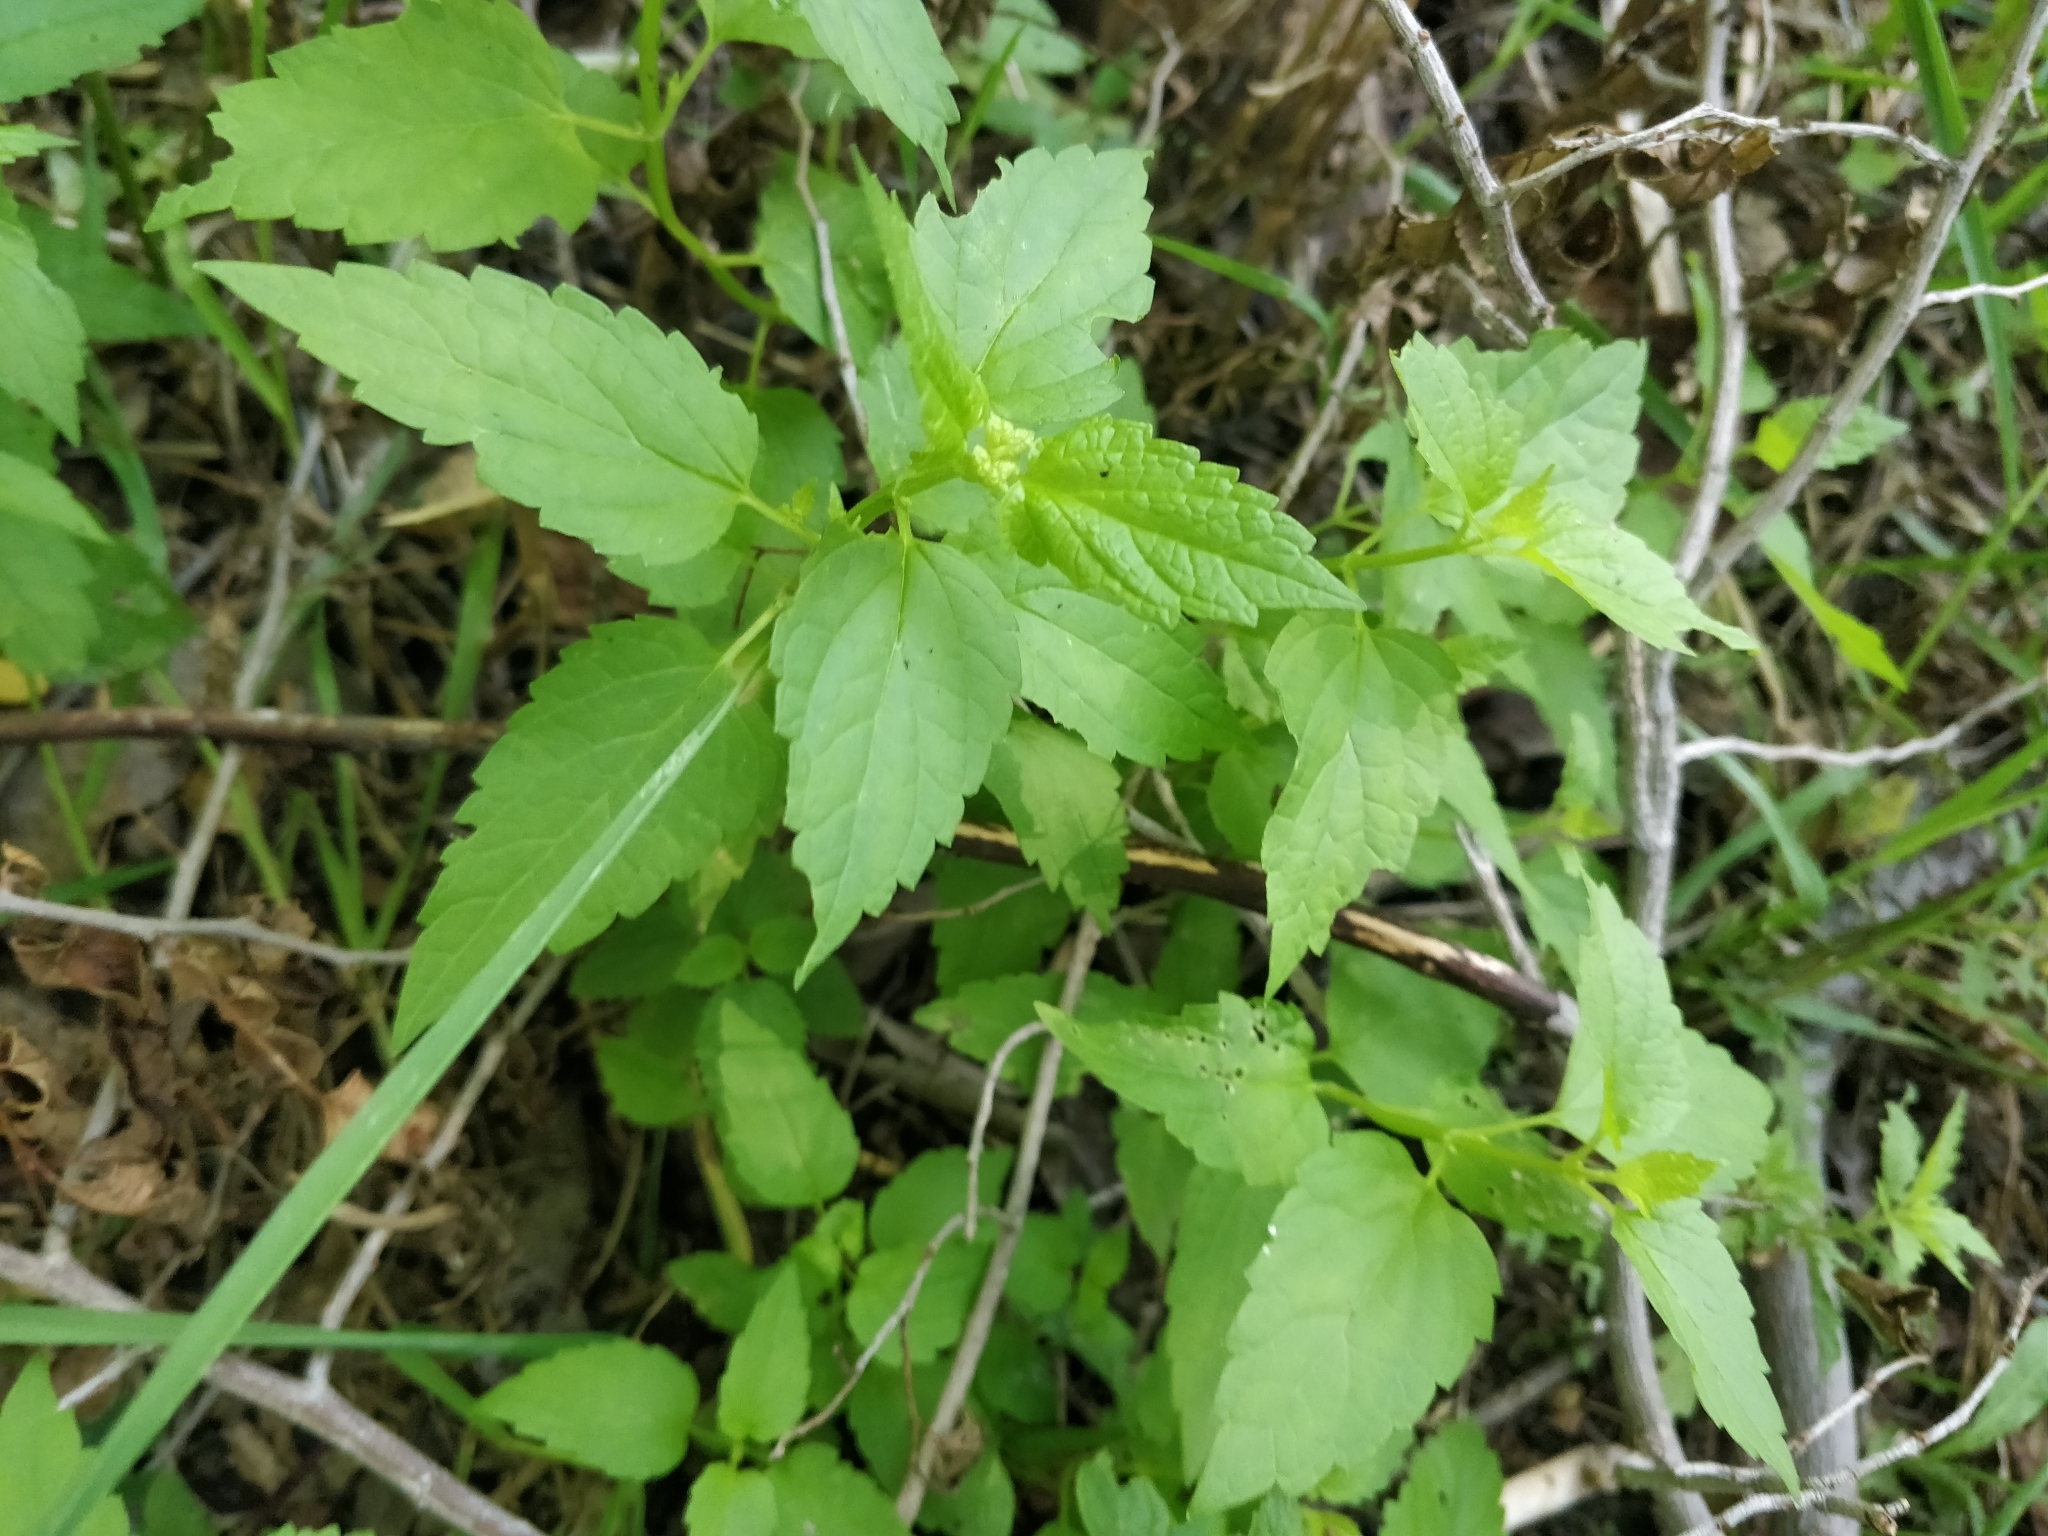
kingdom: Plantae
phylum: Tracheophyta
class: Magnoliopsida
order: Lamiales
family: Lamiaceae
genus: Scutellaria
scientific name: Scutellaria lateriflora
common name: Blue skullcap
